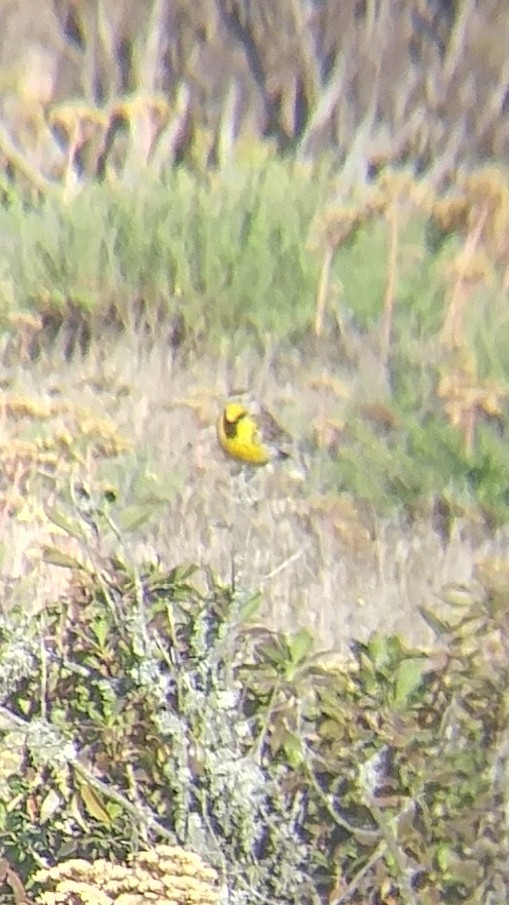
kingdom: Animalia
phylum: Chordata
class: Aves
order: Passeriformes
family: Icteridae
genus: Sturnella
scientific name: Sturnella neglecta
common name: Western meadowlark
